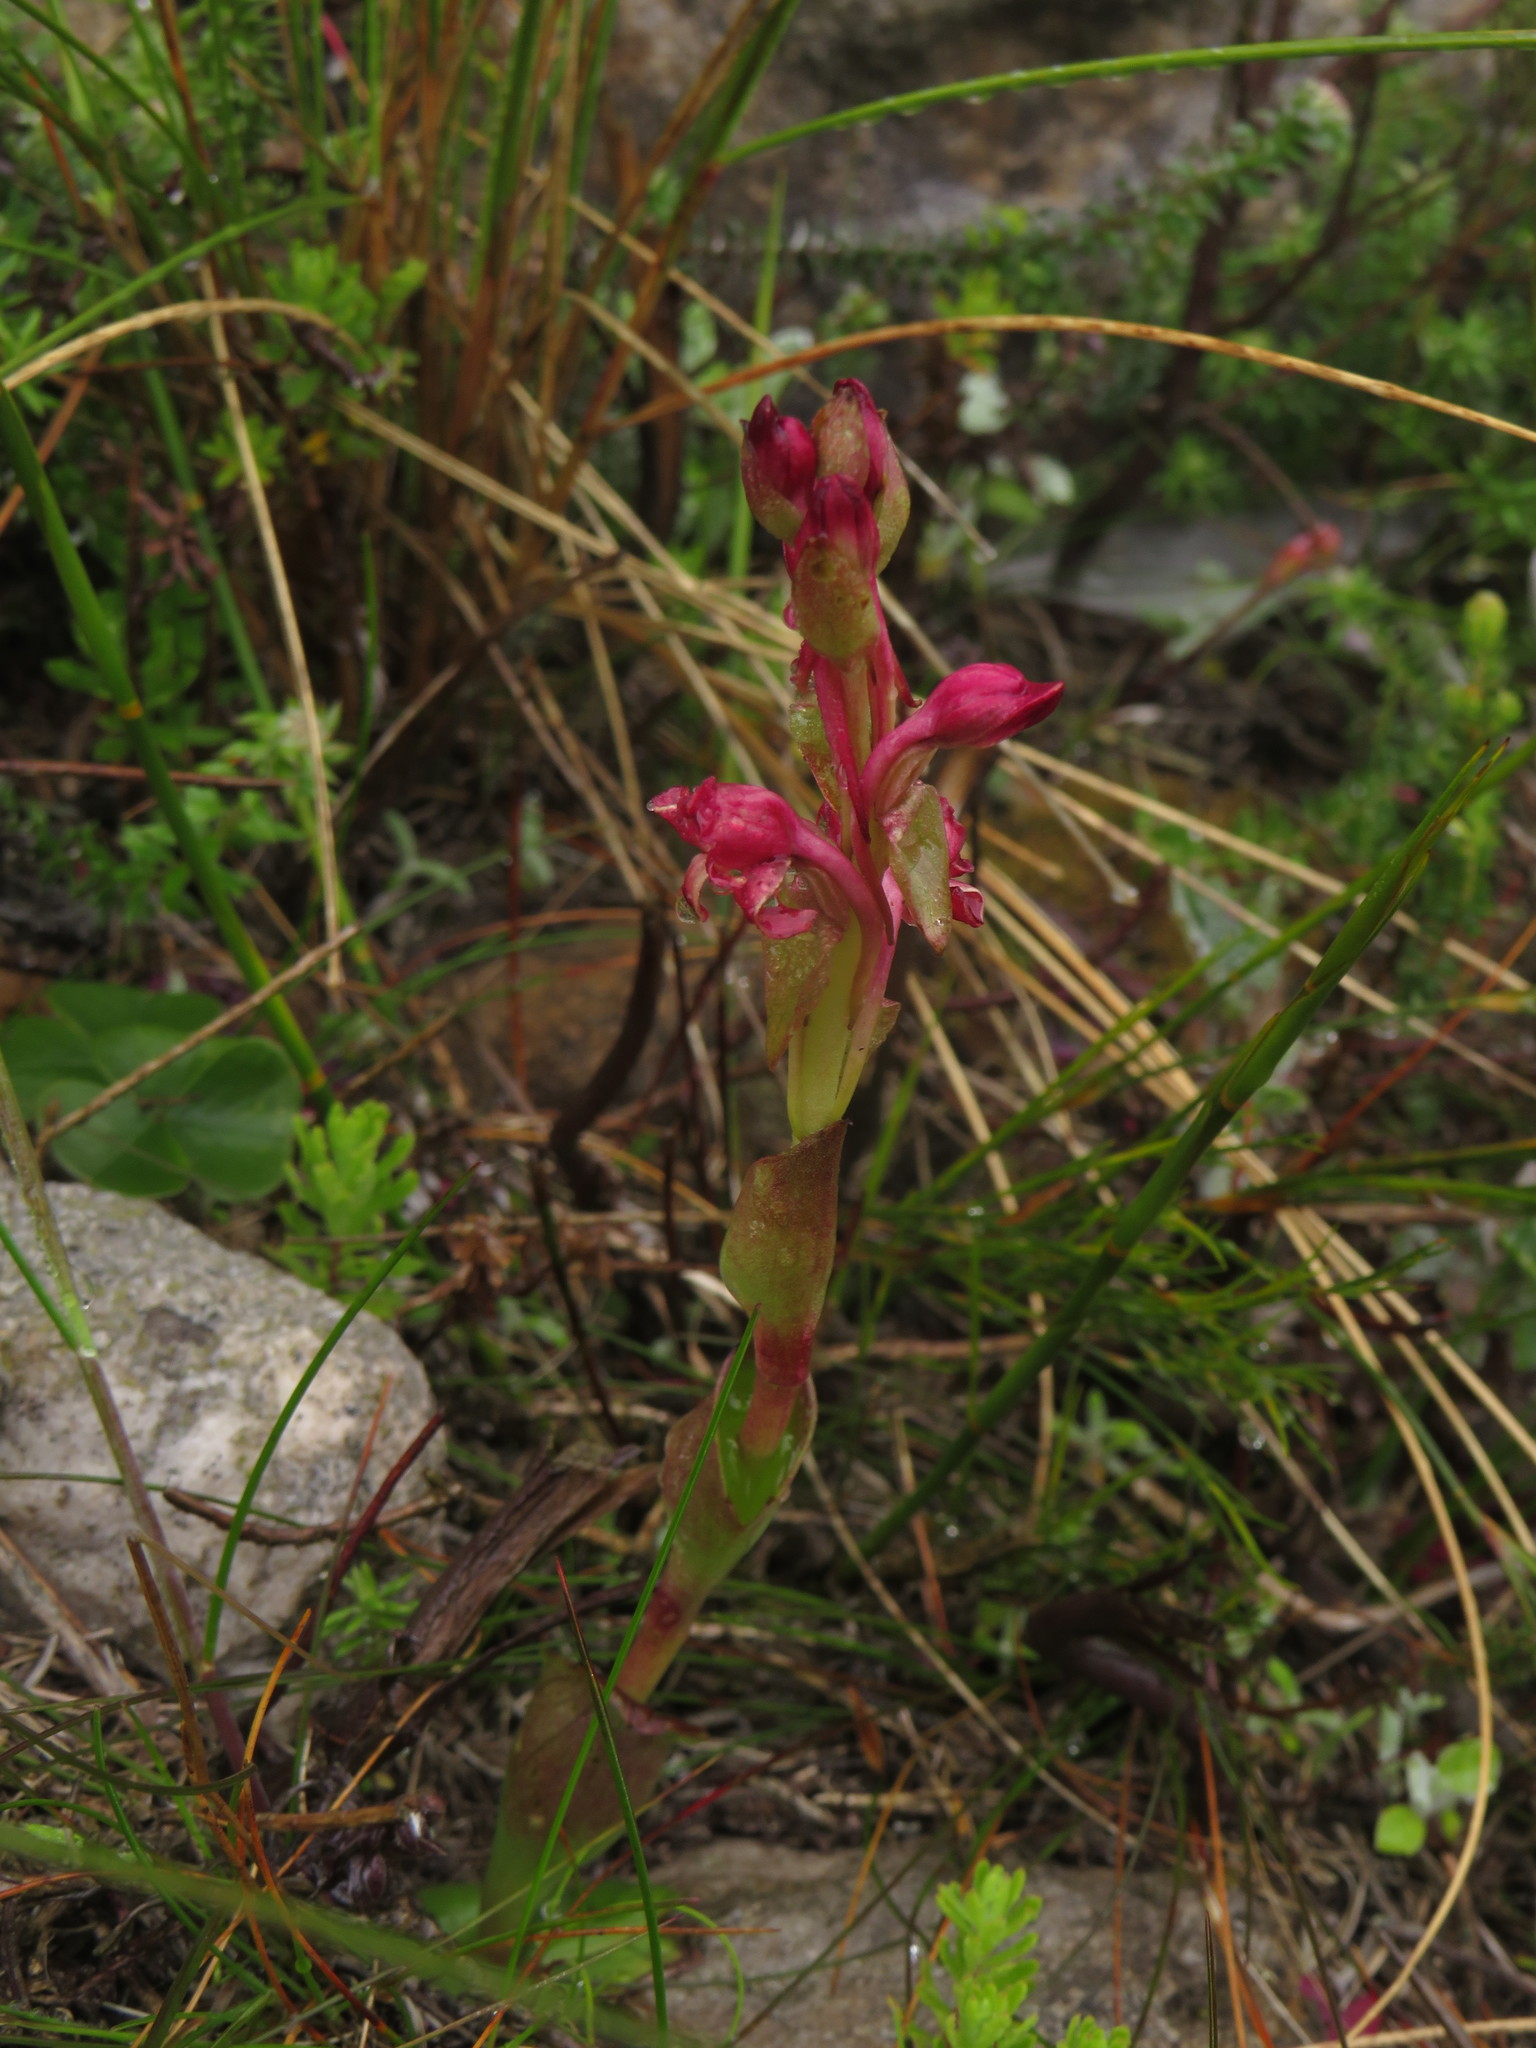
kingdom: Plantae
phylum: Tracheophyta
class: Liliopsida
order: Asparagales
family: Orchidaceae
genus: Satyrium
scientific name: Satyrium situsanguinum
